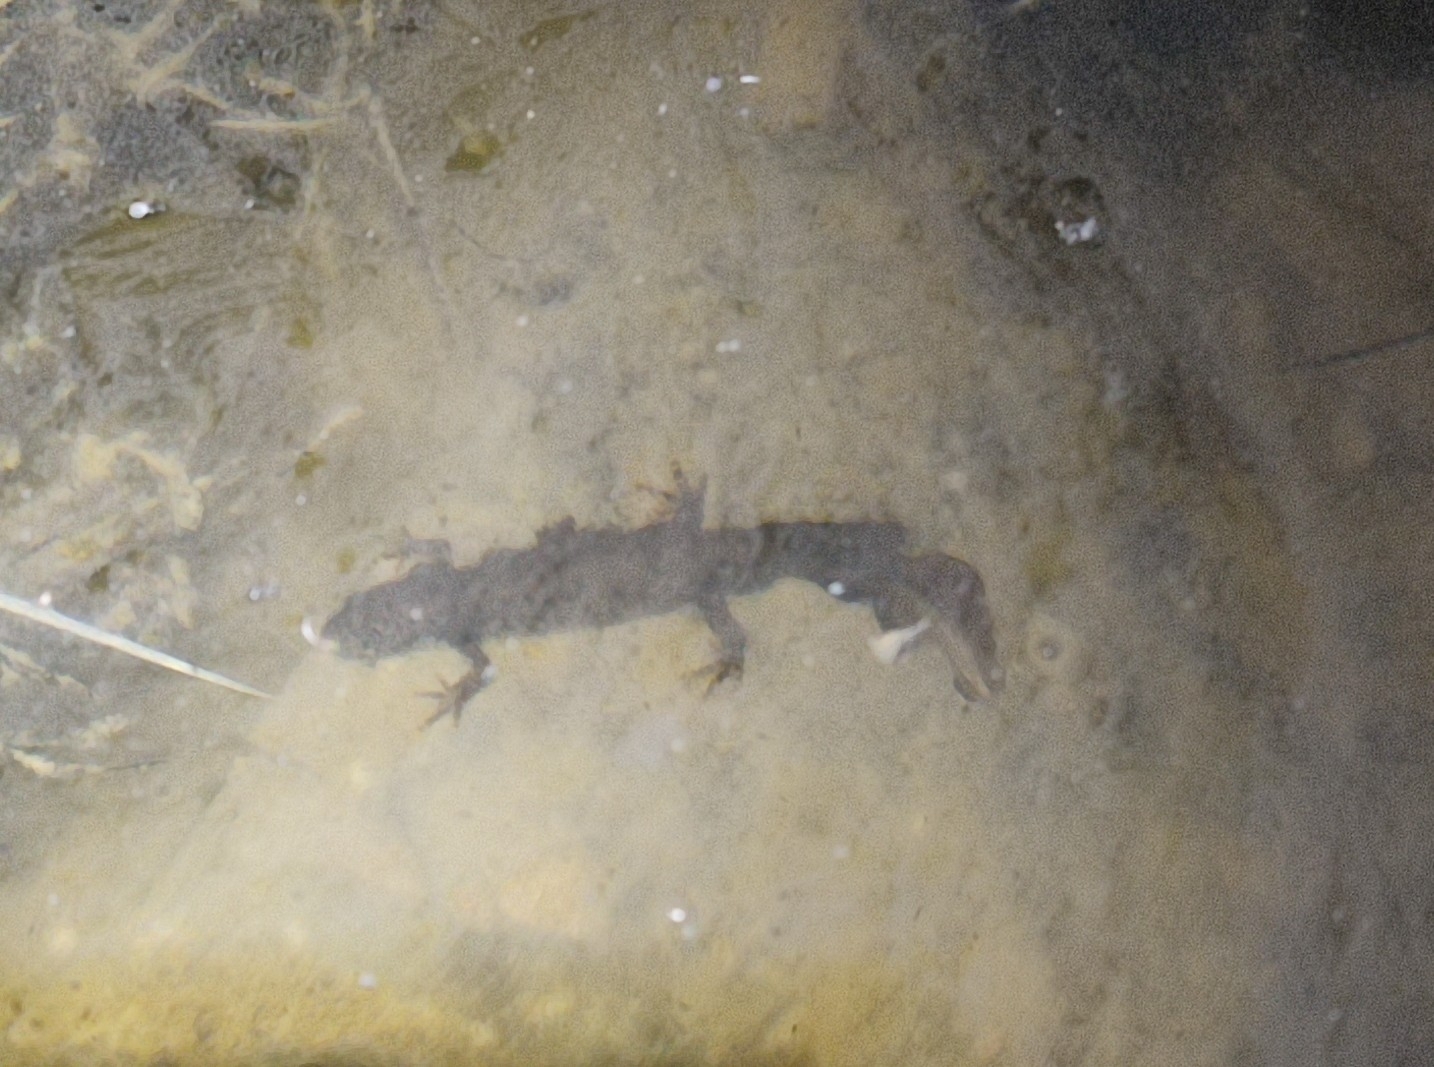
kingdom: Animalia
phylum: Chordata
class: Amphibia
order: Caudata
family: Salamandridae
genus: Triturus
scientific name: Triturus cristatus
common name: Crested newt
